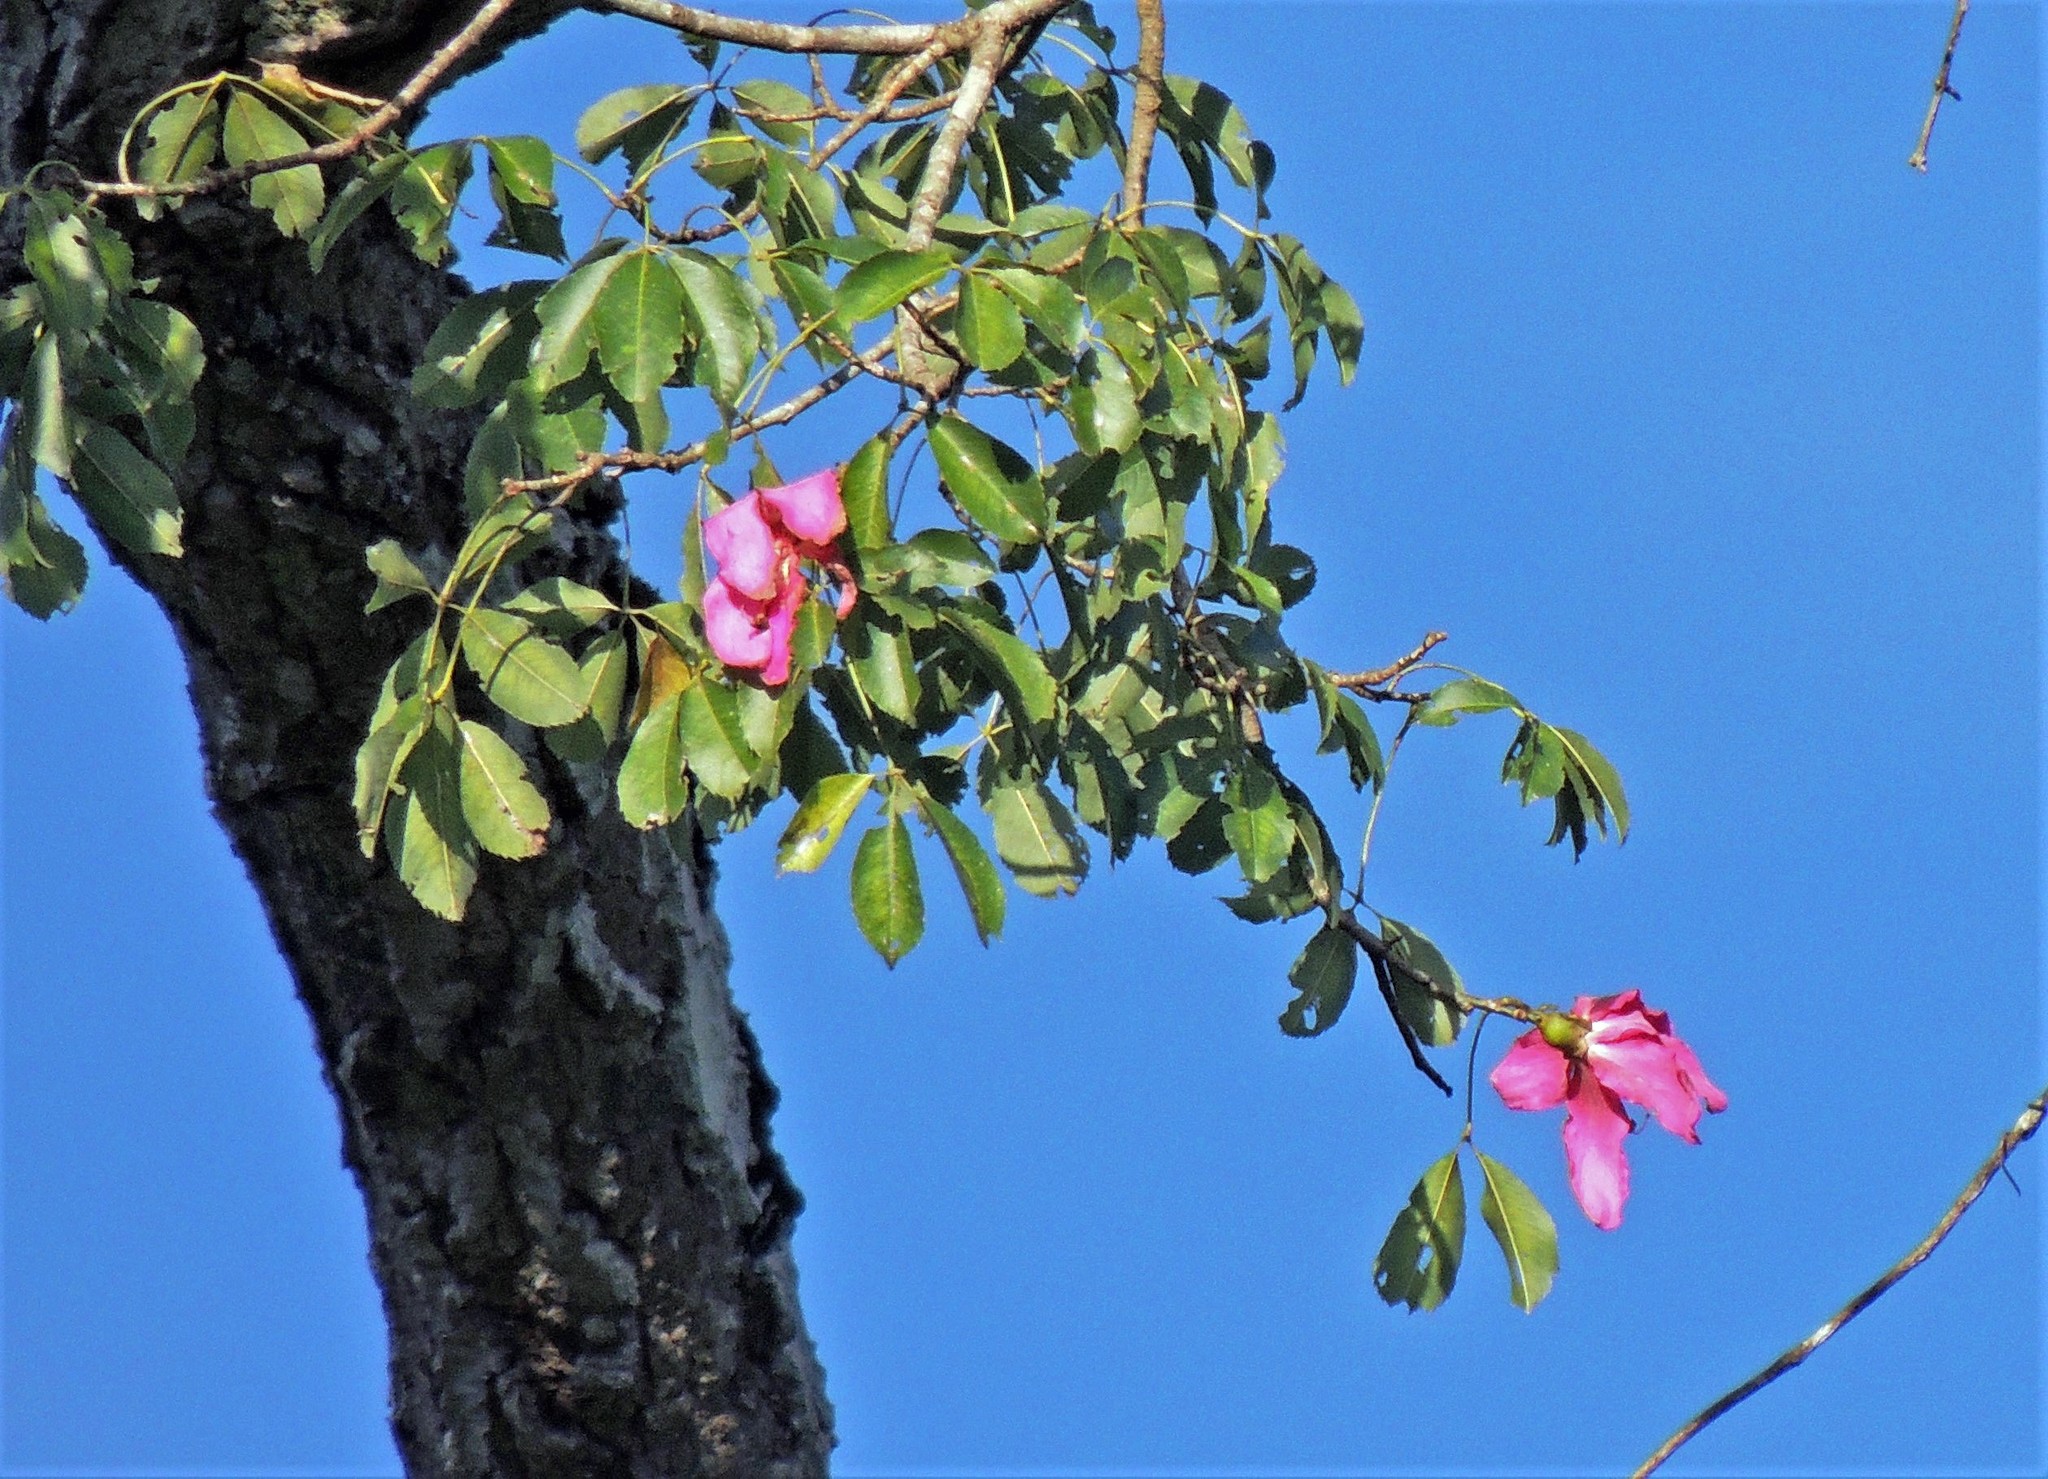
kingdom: Plantae
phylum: Tracheophyta
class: Magnoliopsida
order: Malvales
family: Malvaceae
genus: Ceiba
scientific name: Ceiba speciosa
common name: Silk-floss tree
